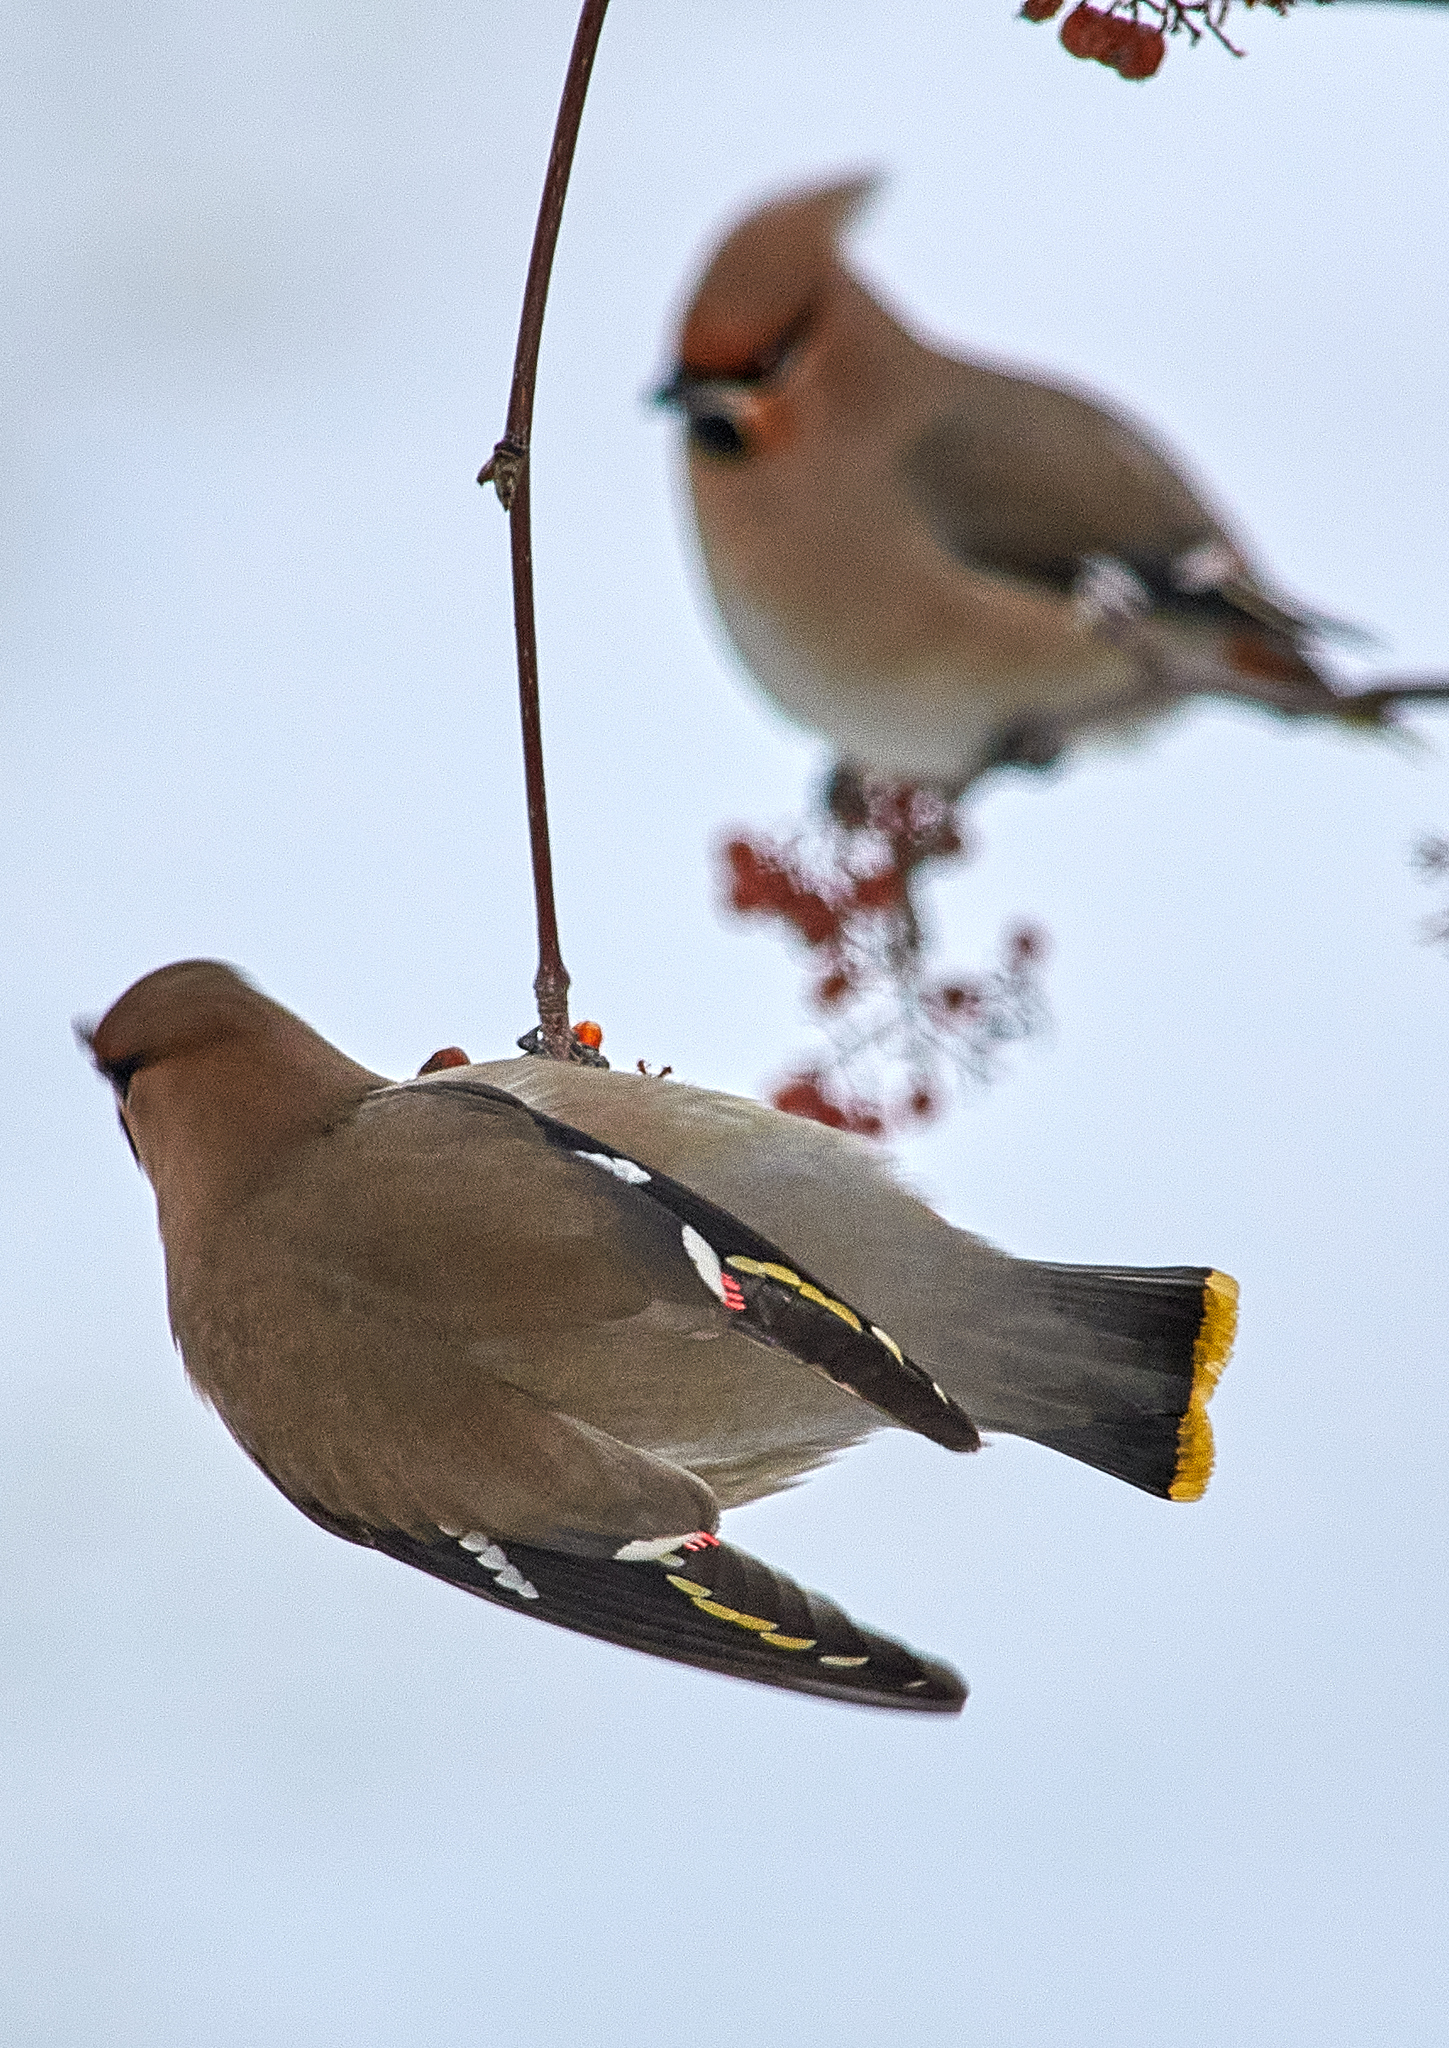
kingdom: Animalia
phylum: Chordata
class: Aves
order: Passeriformes
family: Bombycillidae
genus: Bombycilla
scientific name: Bombycilla garrulus
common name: Bohemian waxwing
